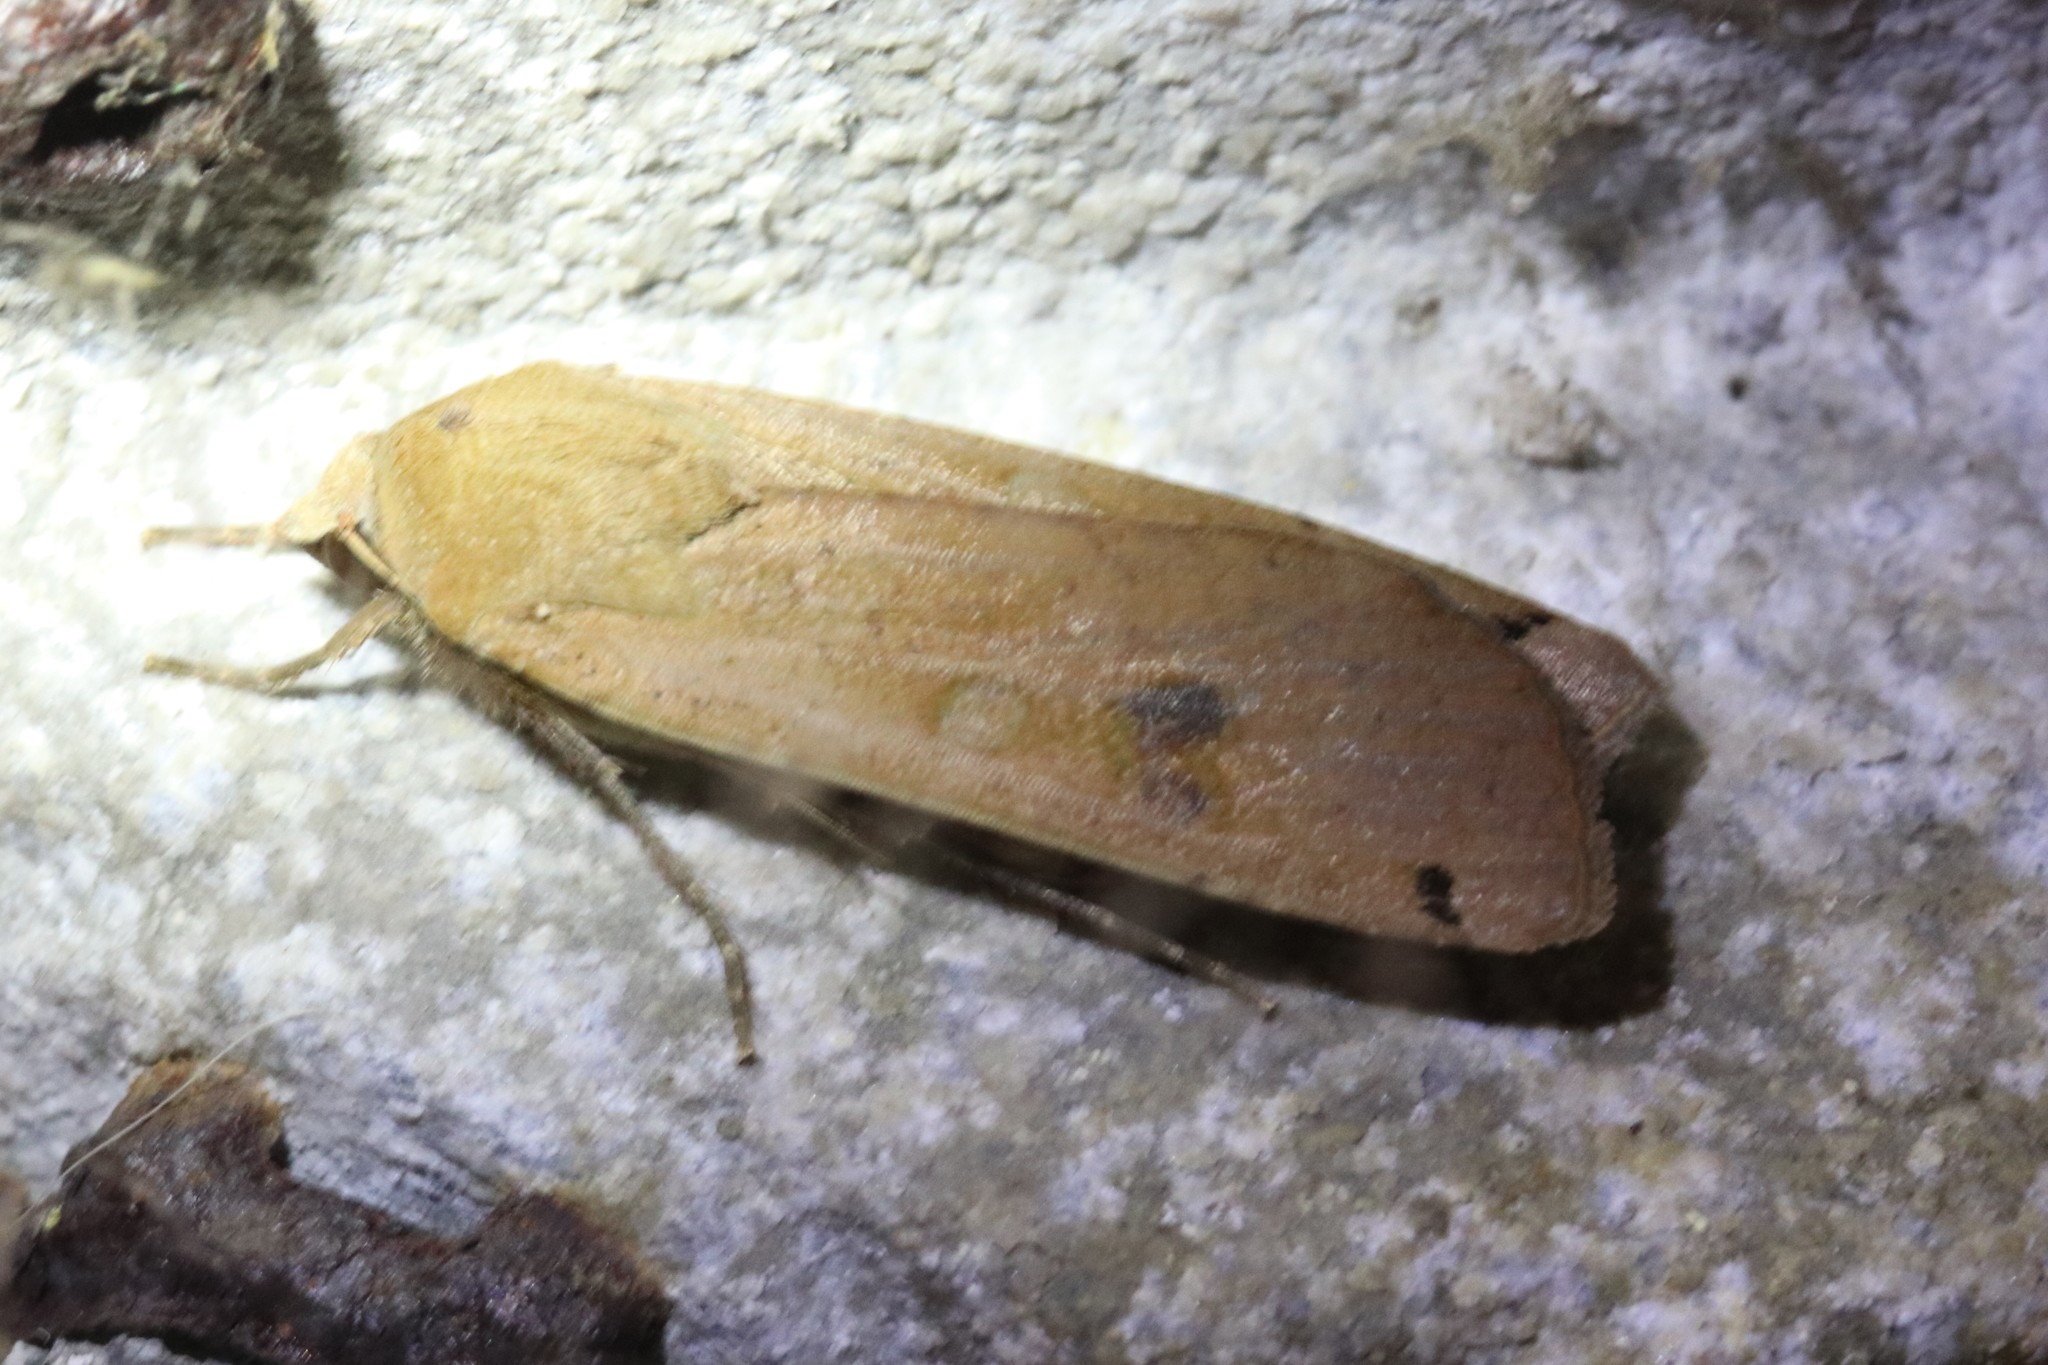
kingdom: Animalia
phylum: Arthropoda
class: Insecta
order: Lepidoptera
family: Noctuidae
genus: Noctua
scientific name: Noctua pronuba
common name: Large yellow underwing
